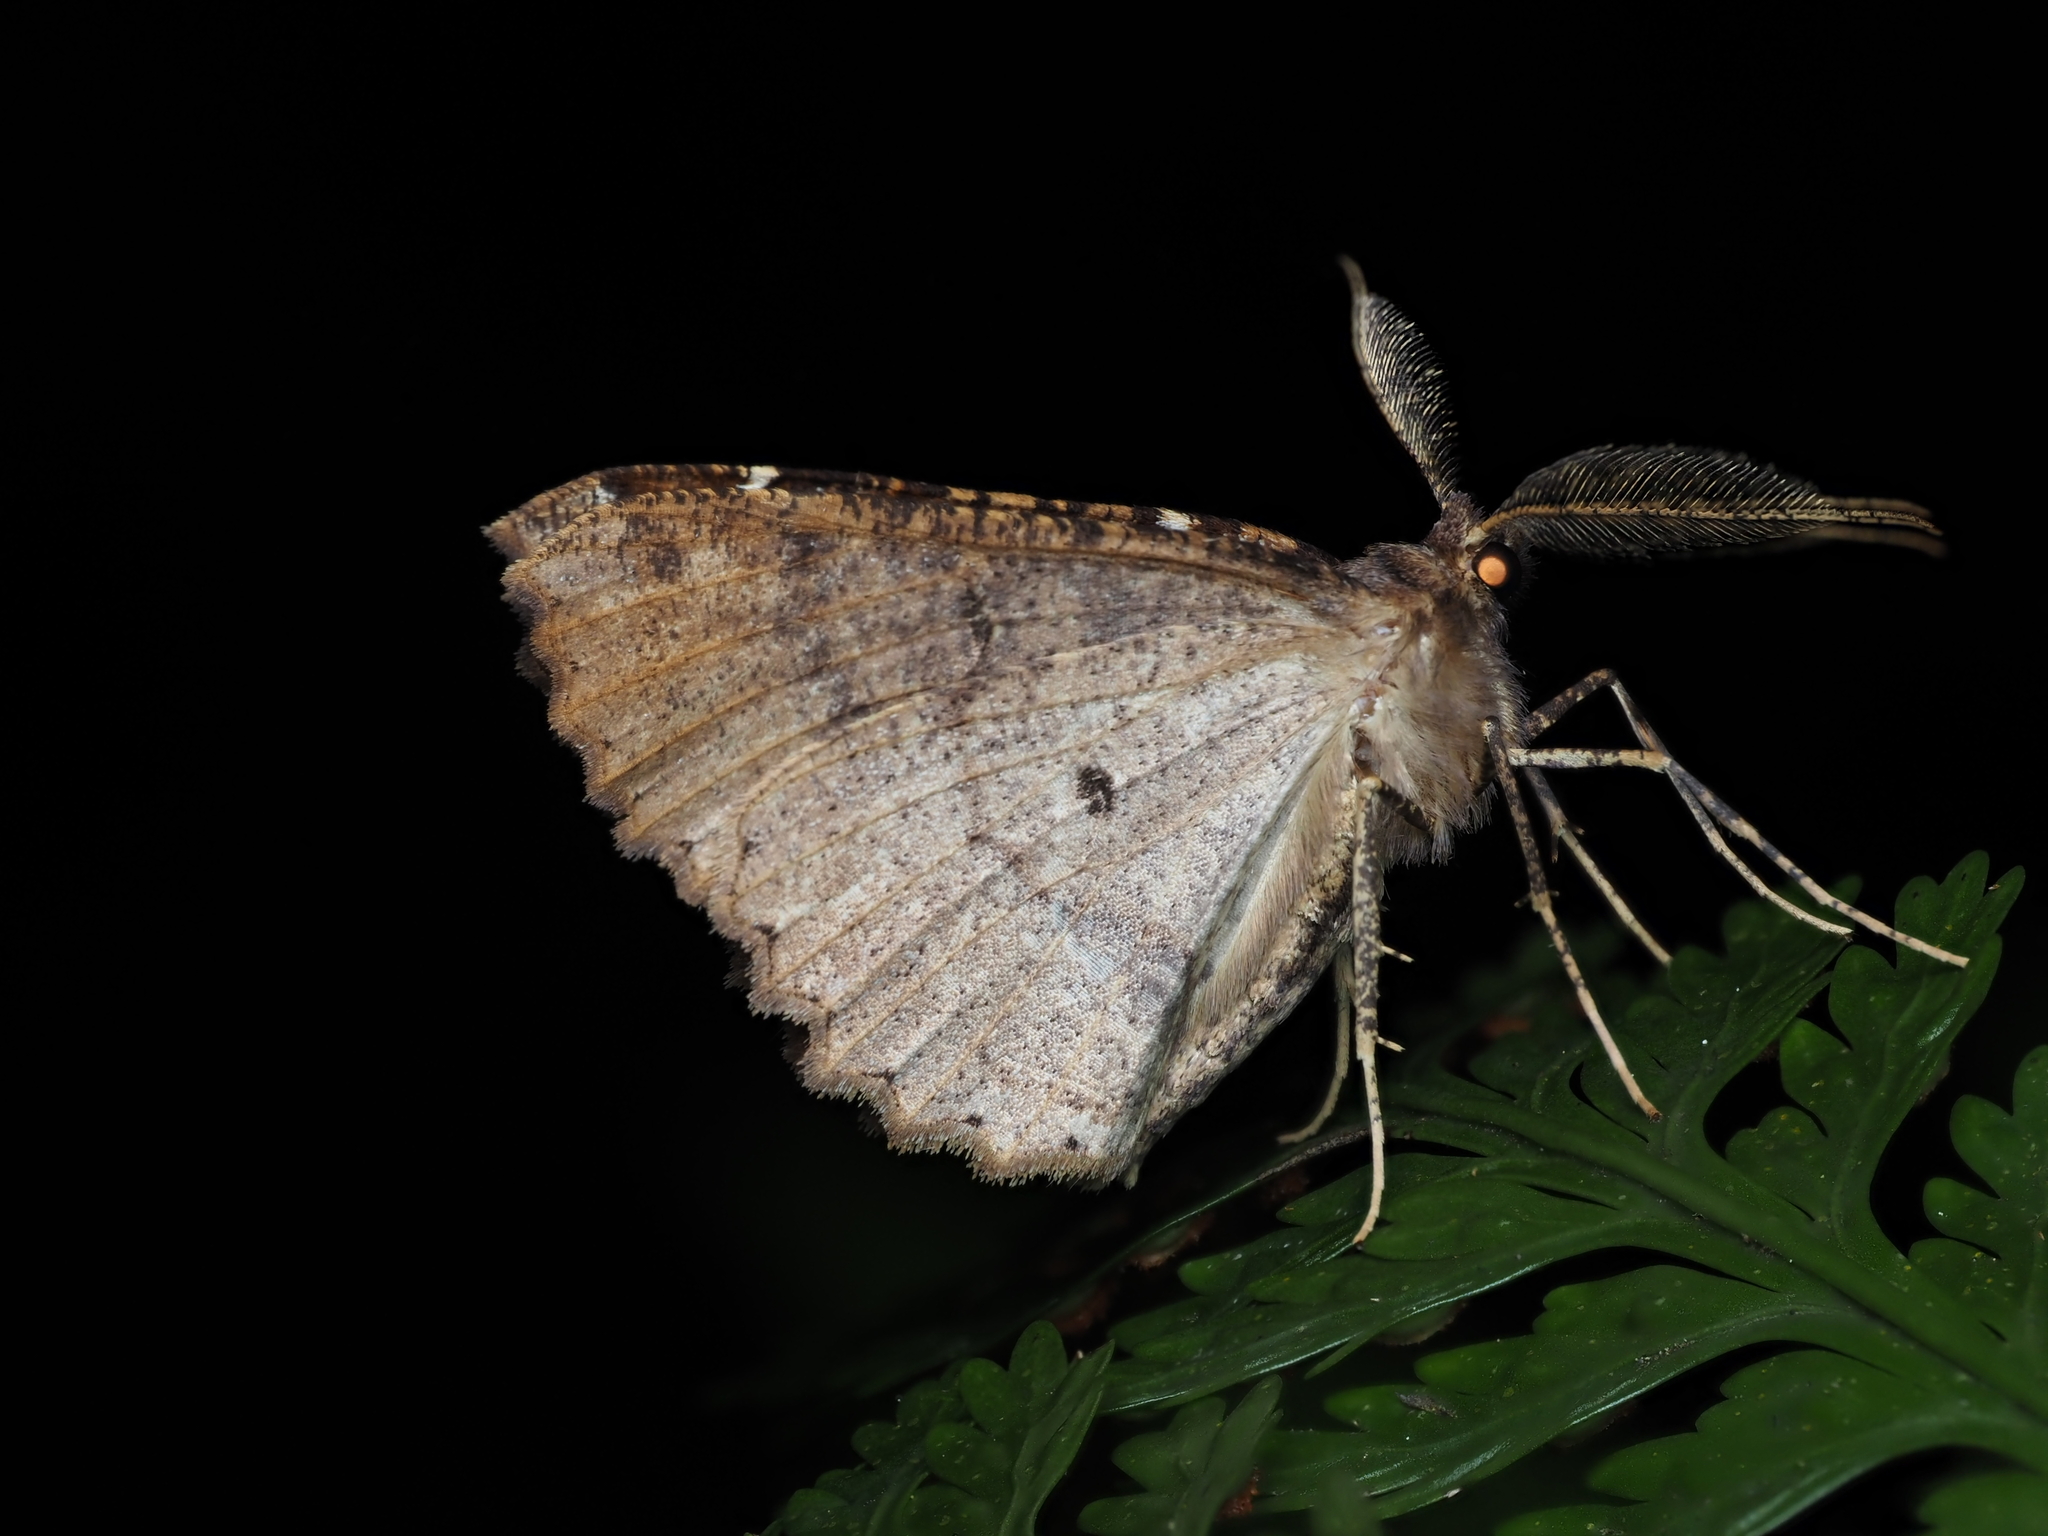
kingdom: Animalia
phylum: Arthropoda
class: Insecta
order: Lepidoptera
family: Geometridae
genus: Cleora
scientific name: Cleora scriptaria
